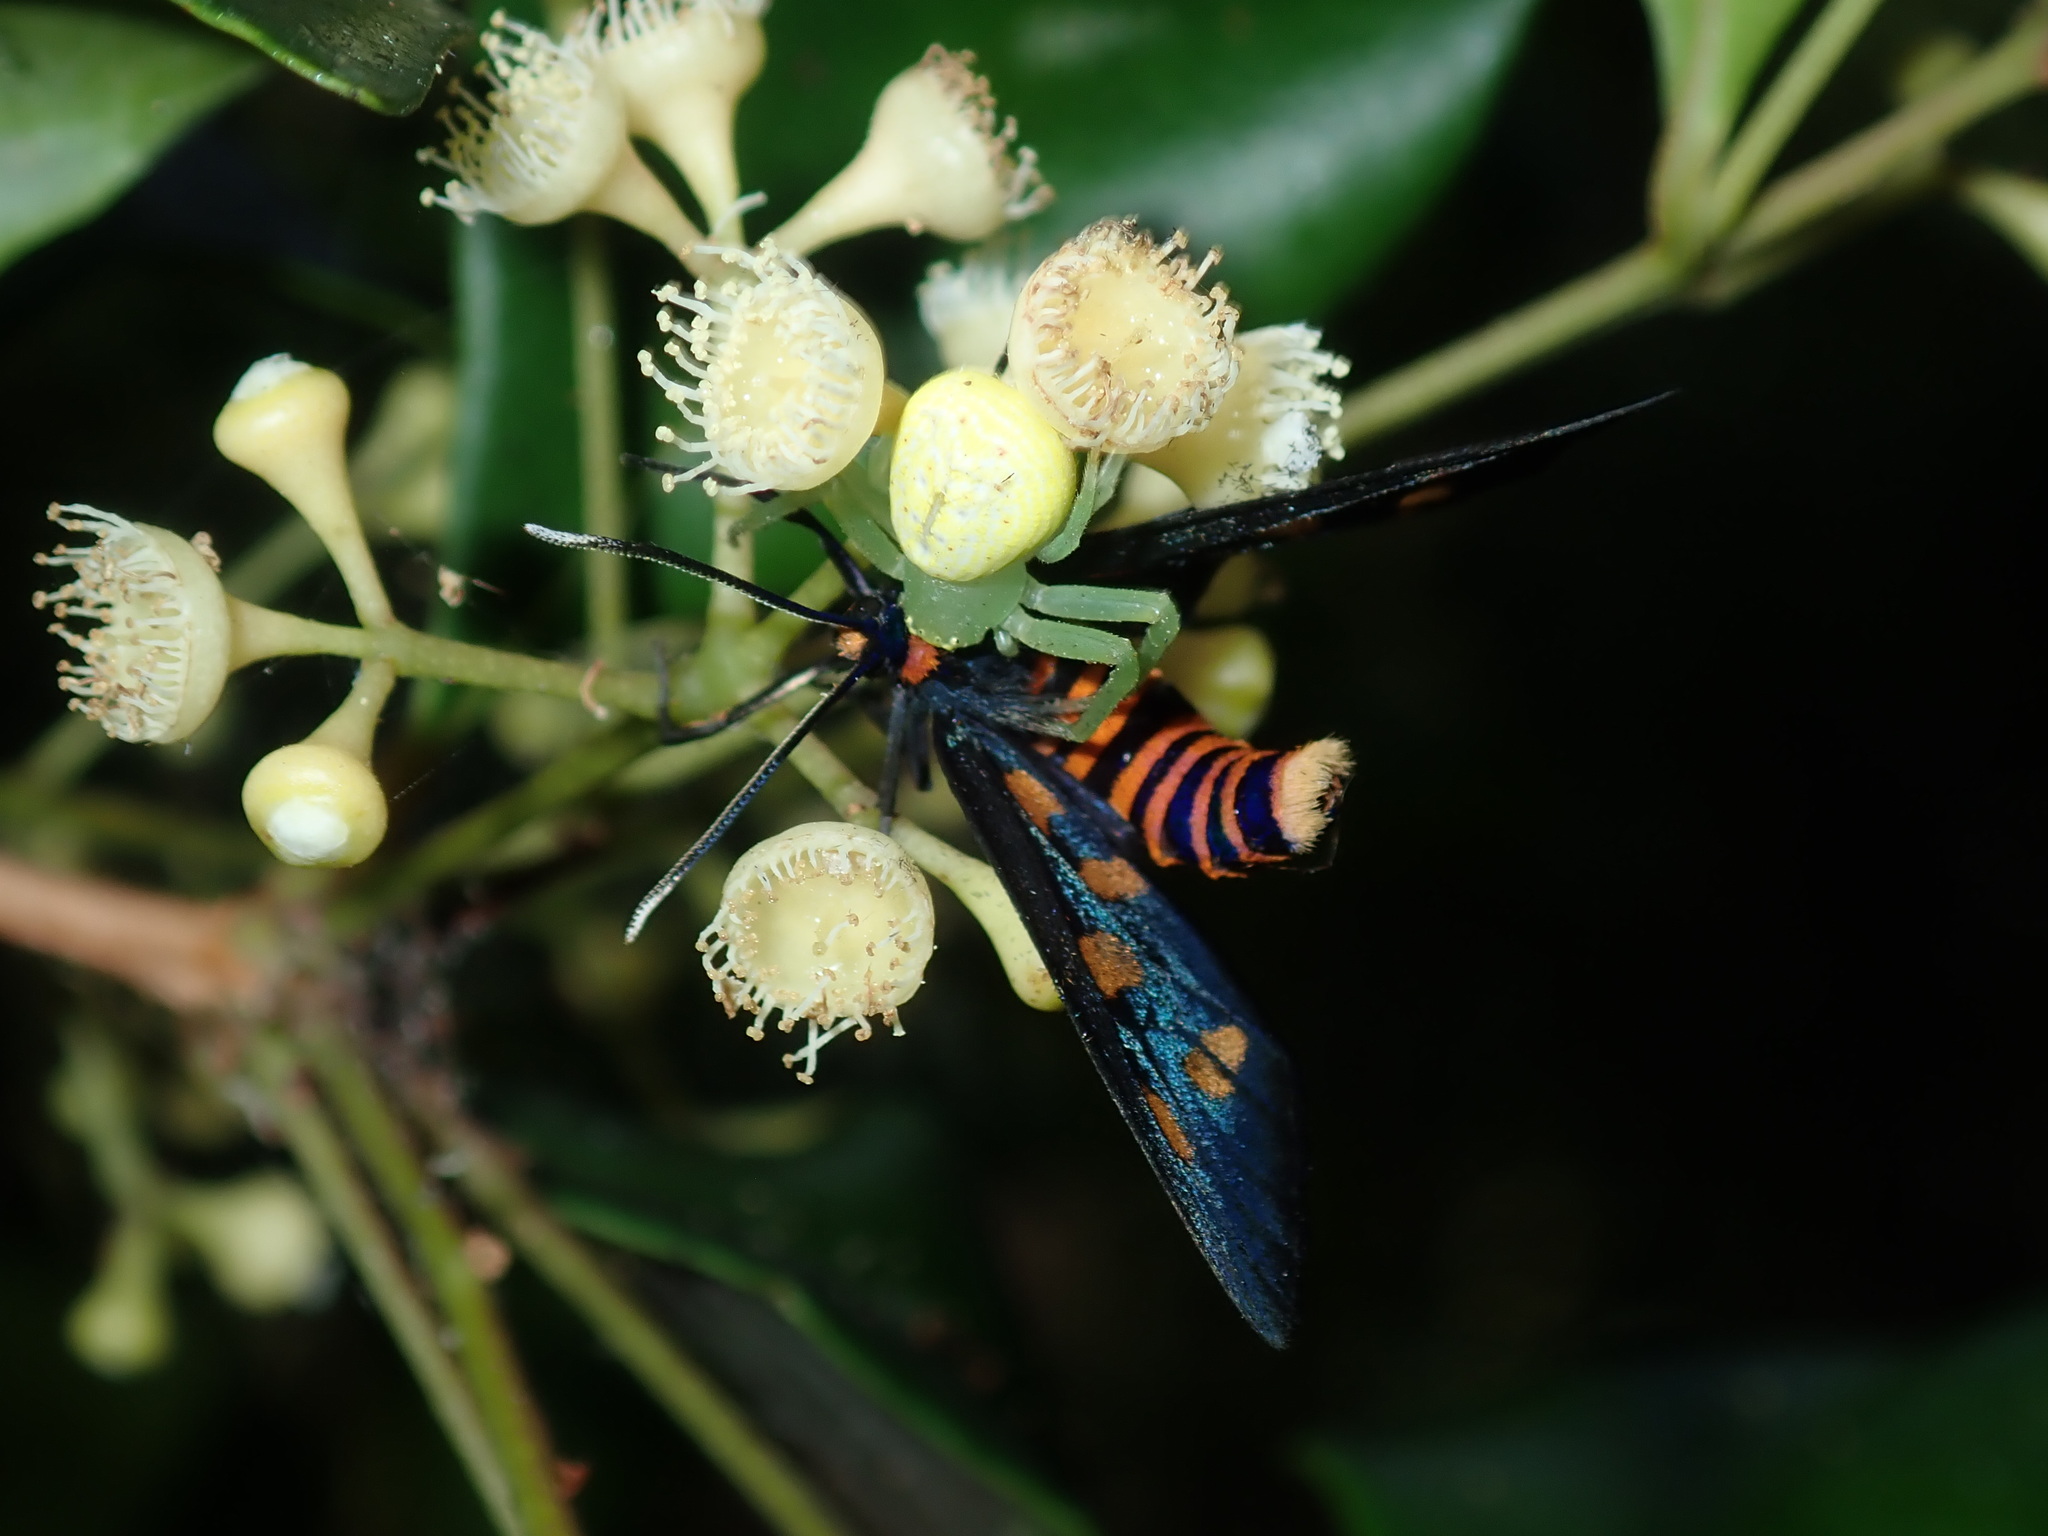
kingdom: Animalia
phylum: Arthropoda
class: Insecta
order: Lepidoptera
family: Erebidae
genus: Amata
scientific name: Amata nigriceps
